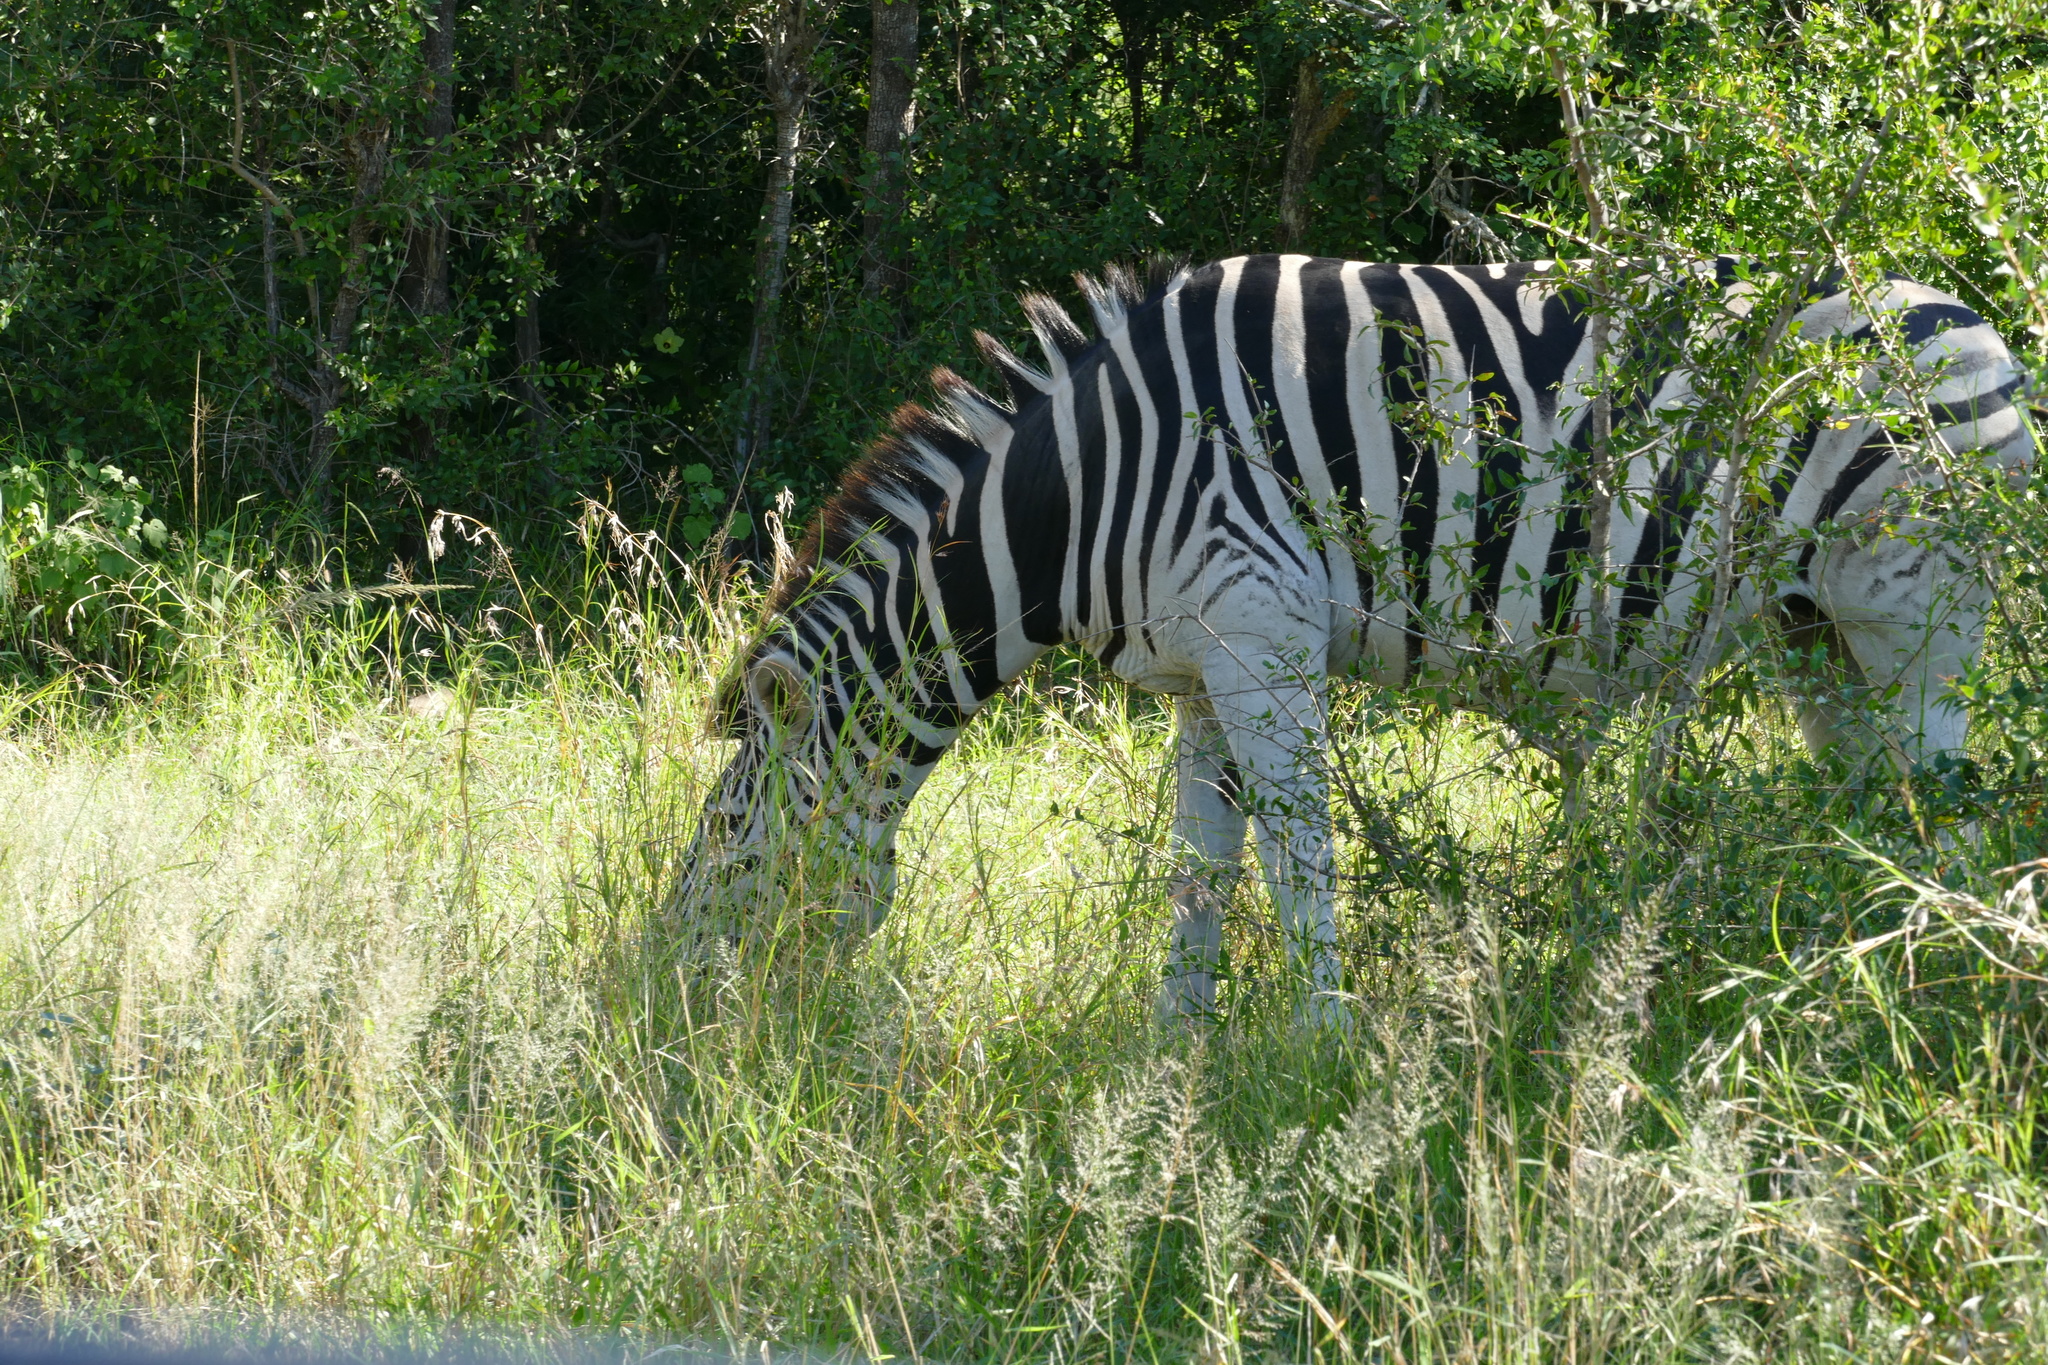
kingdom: Animalia
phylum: Chordata
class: Mammalia
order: Perissodactyla
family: Equidae
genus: Equus
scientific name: Equus quagga
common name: Plains zebra
